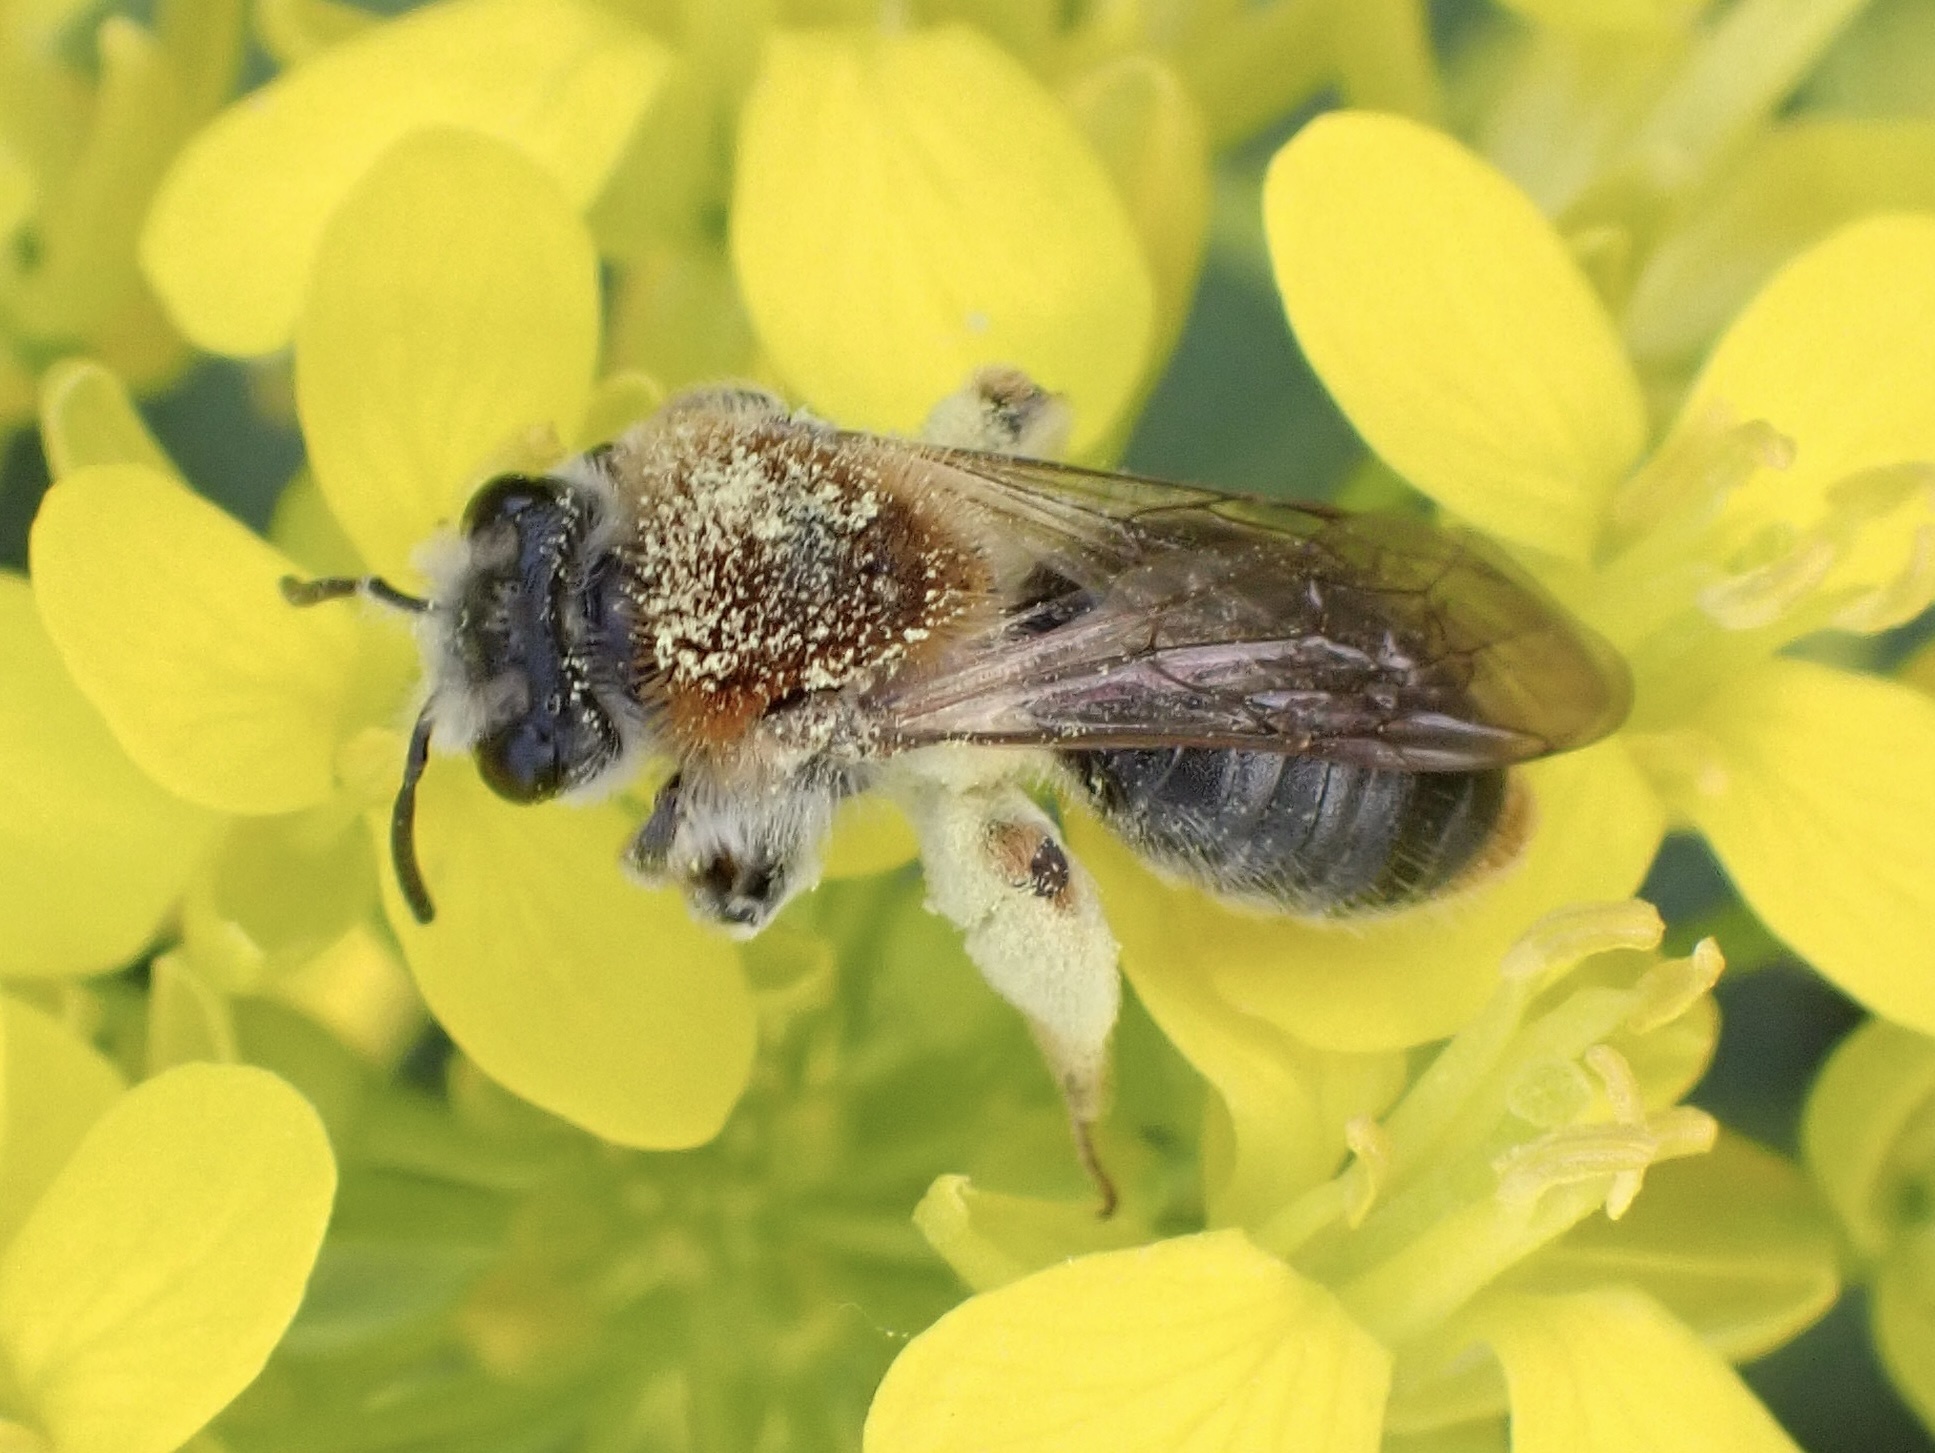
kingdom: Animalia
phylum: Arthropoda
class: Insecta
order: Hymenoptera
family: Andrenidae
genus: Andrena
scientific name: Andrena haemorrhoa
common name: Early mining bee
